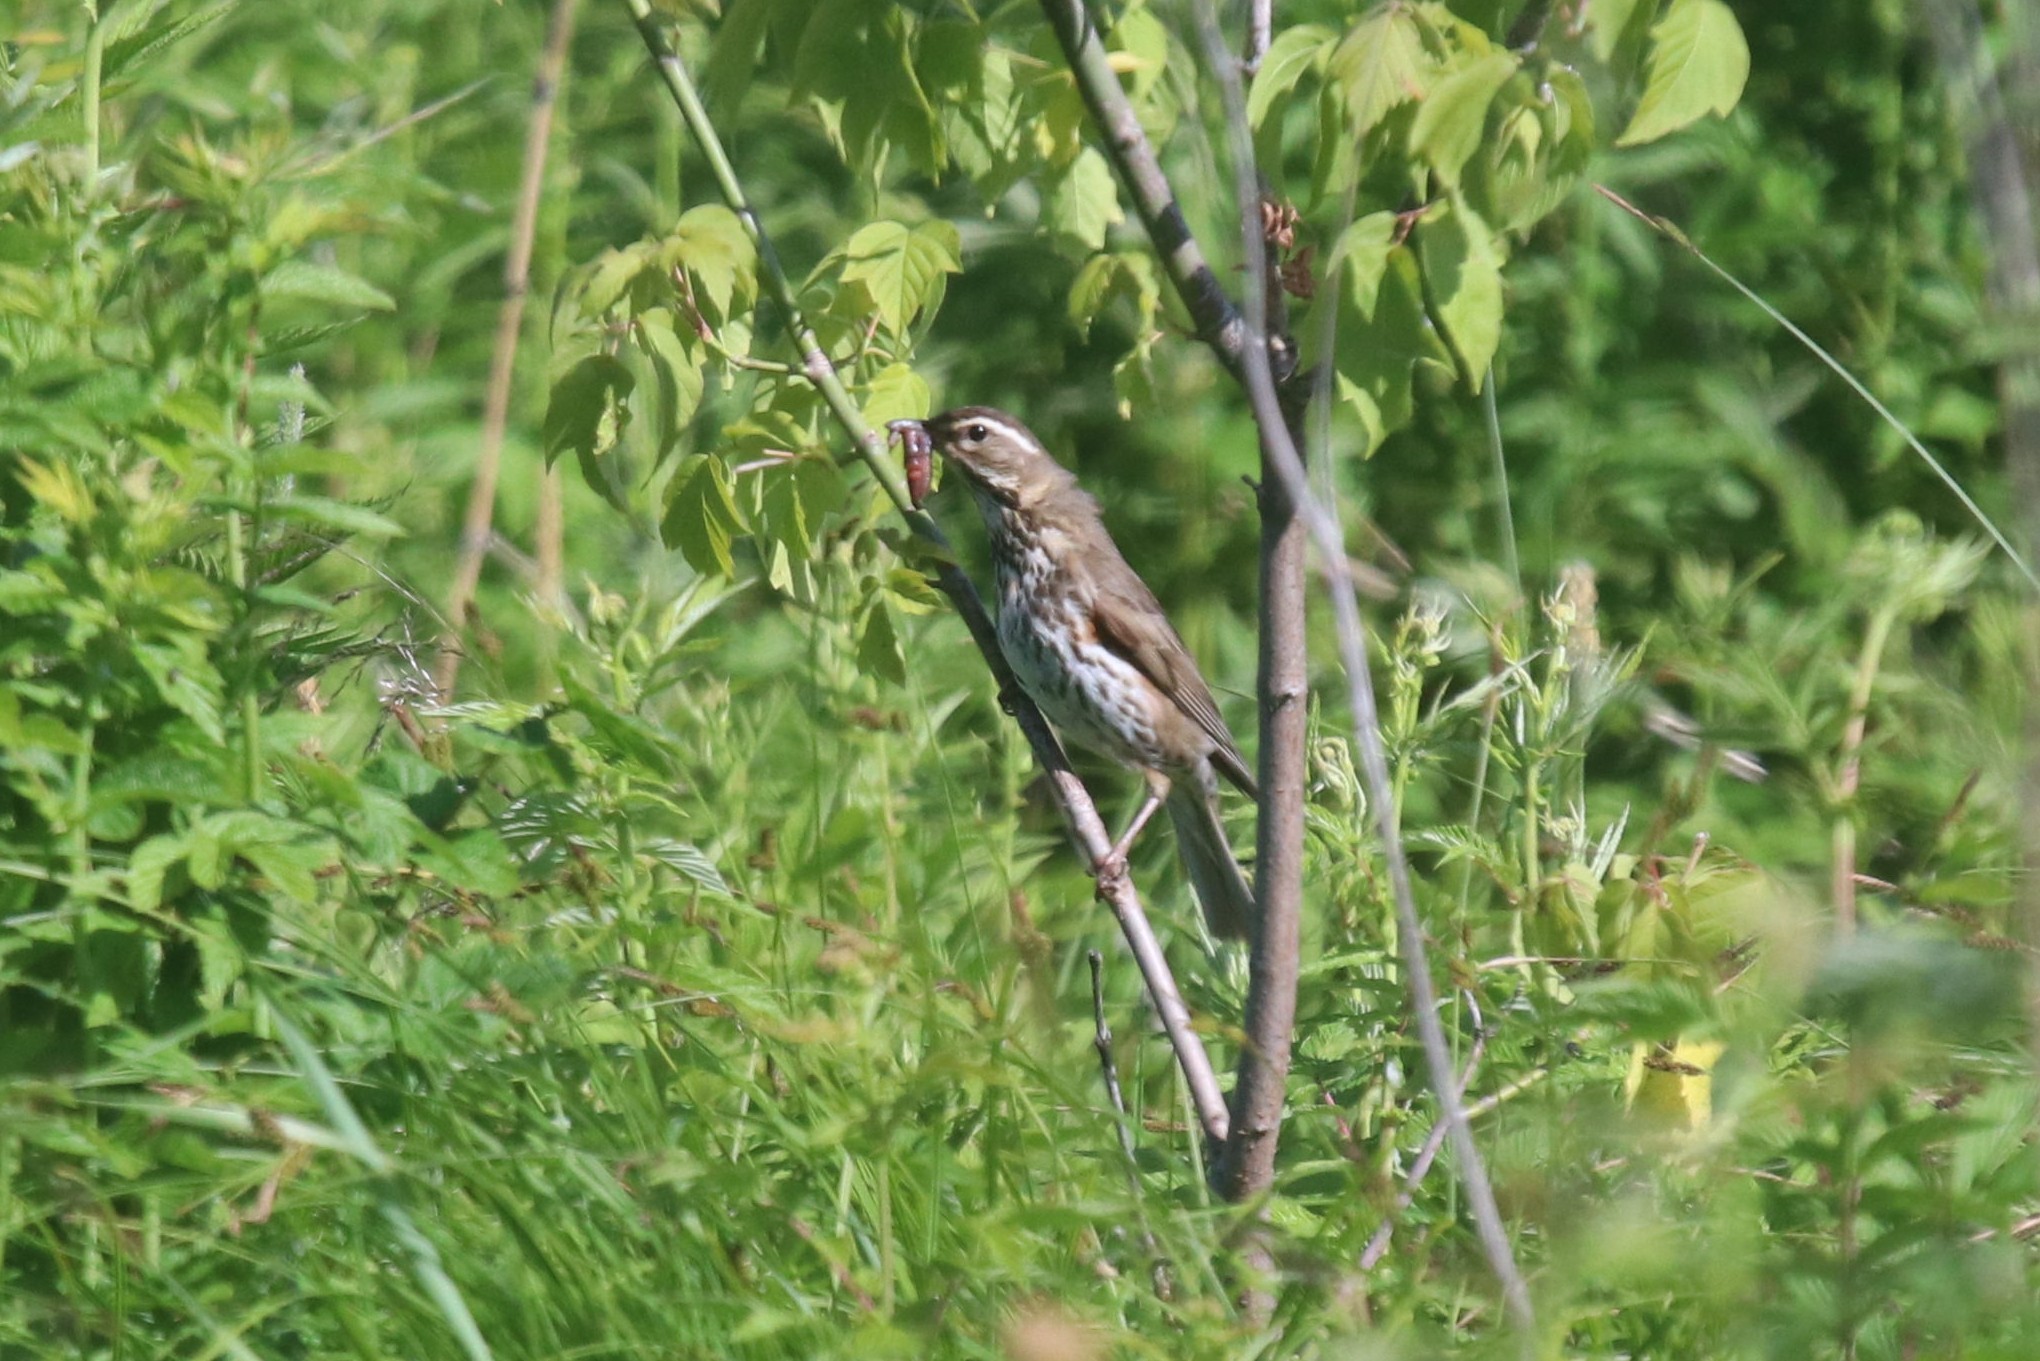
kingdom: Animalia
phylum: Chordata
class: Aves
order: Passeriformes
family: Turdidae
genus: Turdus
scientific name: Turdus iliacus
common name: Redwing
